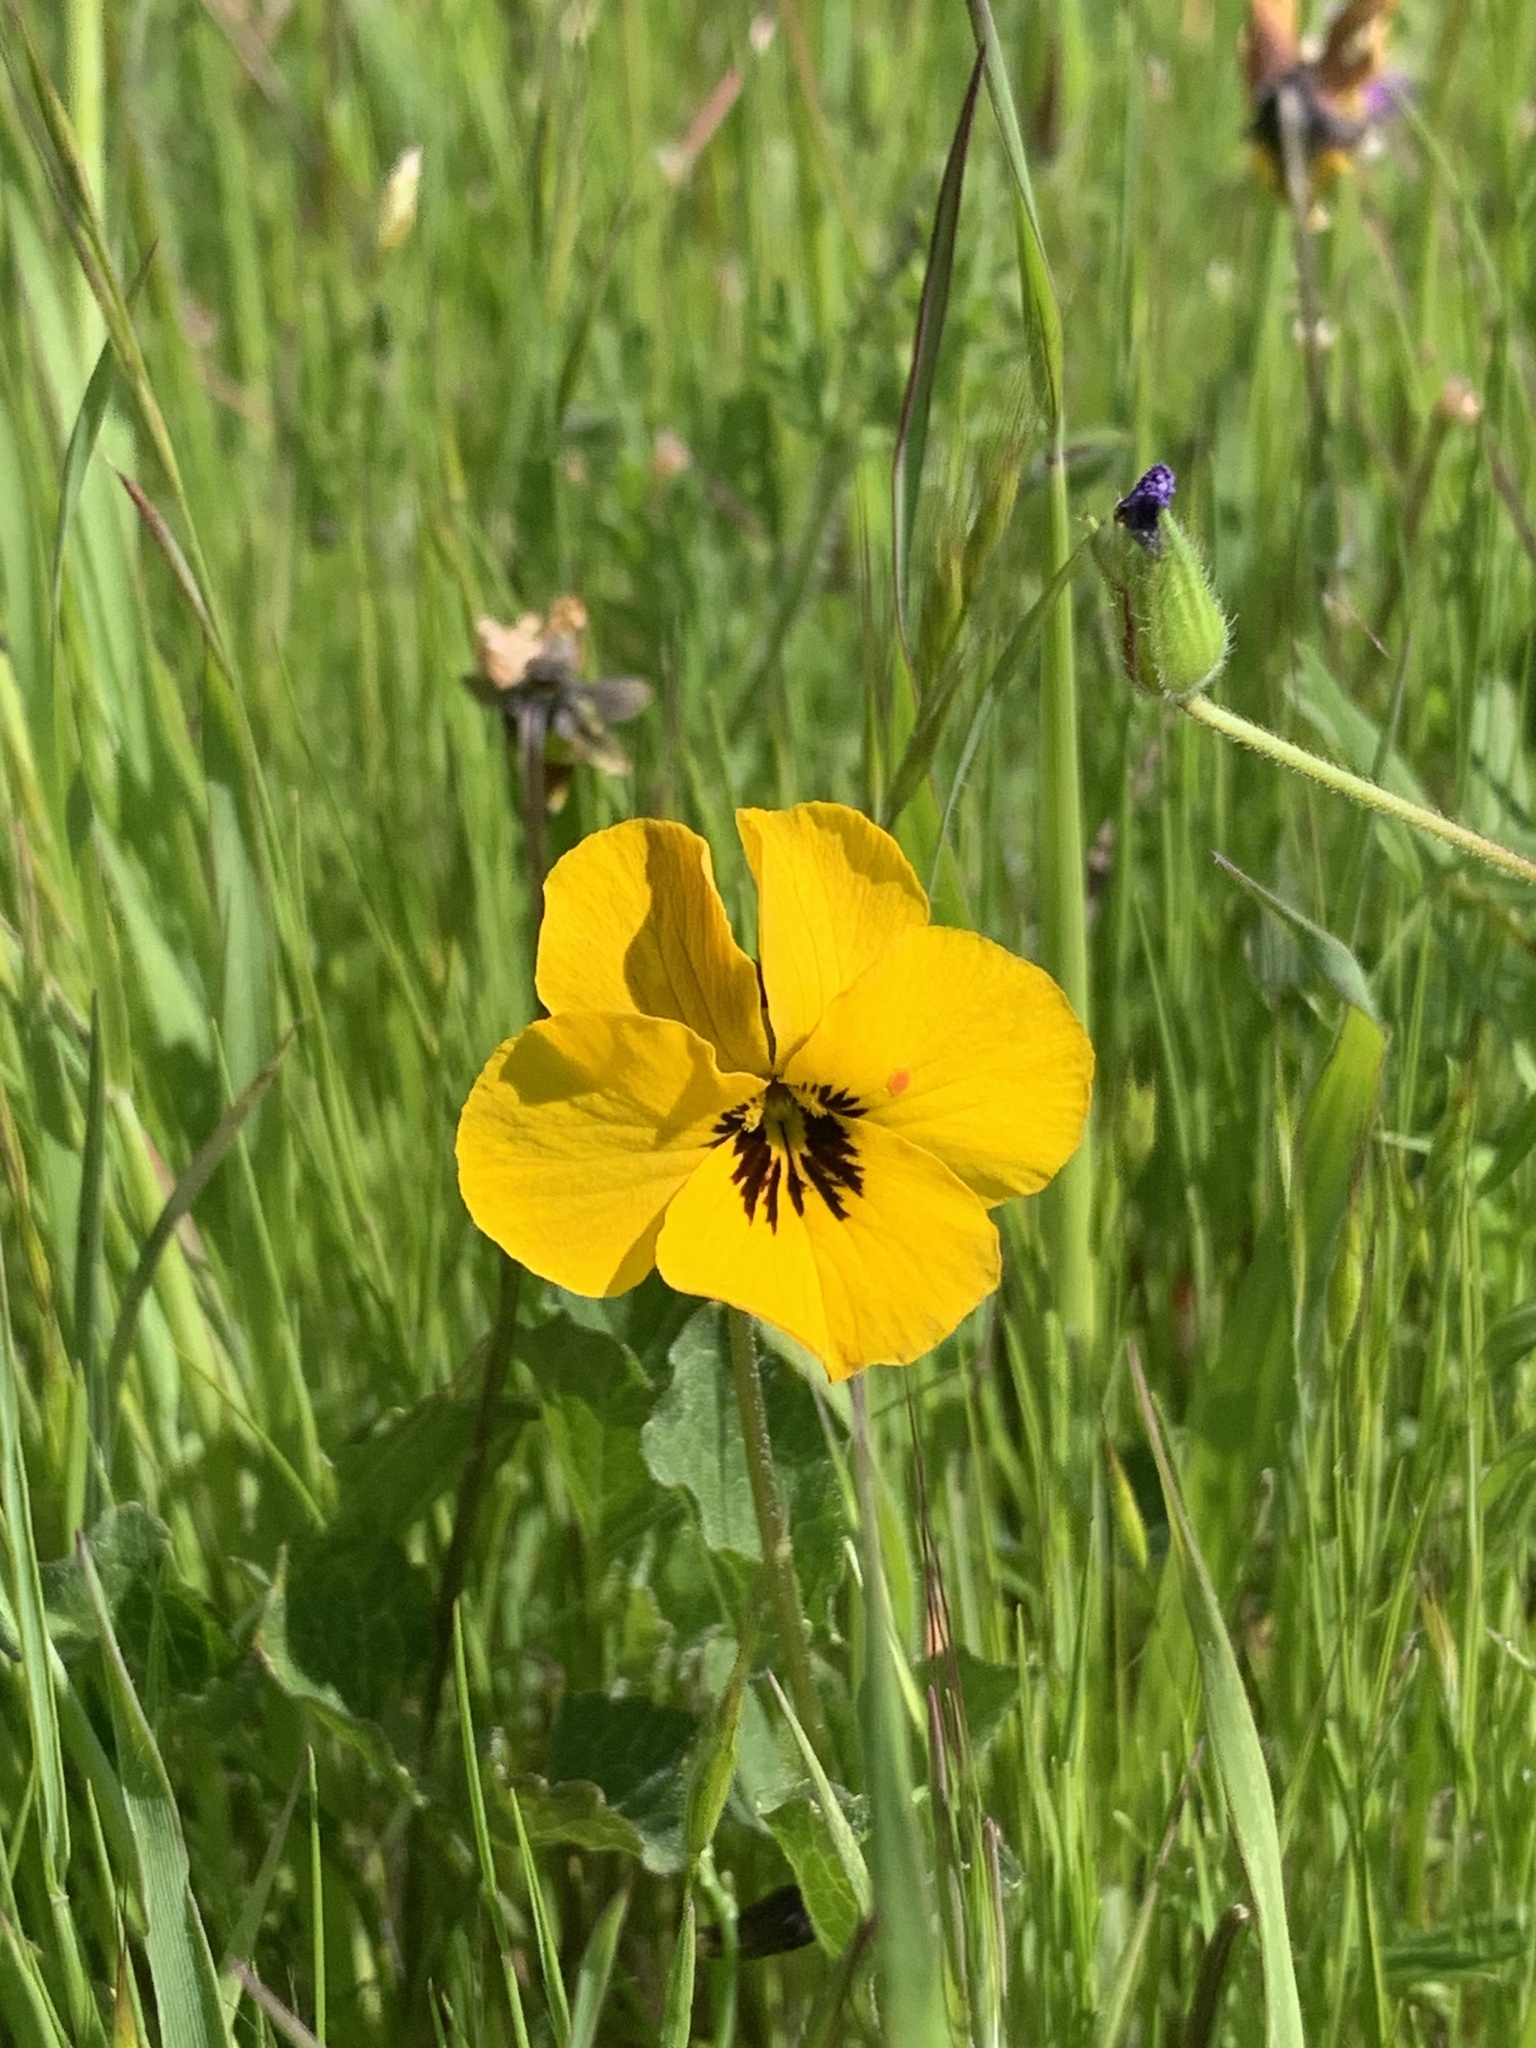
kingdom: Plantae
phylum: Tracheophyta
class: Magnoliopsida
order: Malpighiales
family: Violaceae
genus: Viola
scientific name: Viola pedunculata
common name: California golden violet
